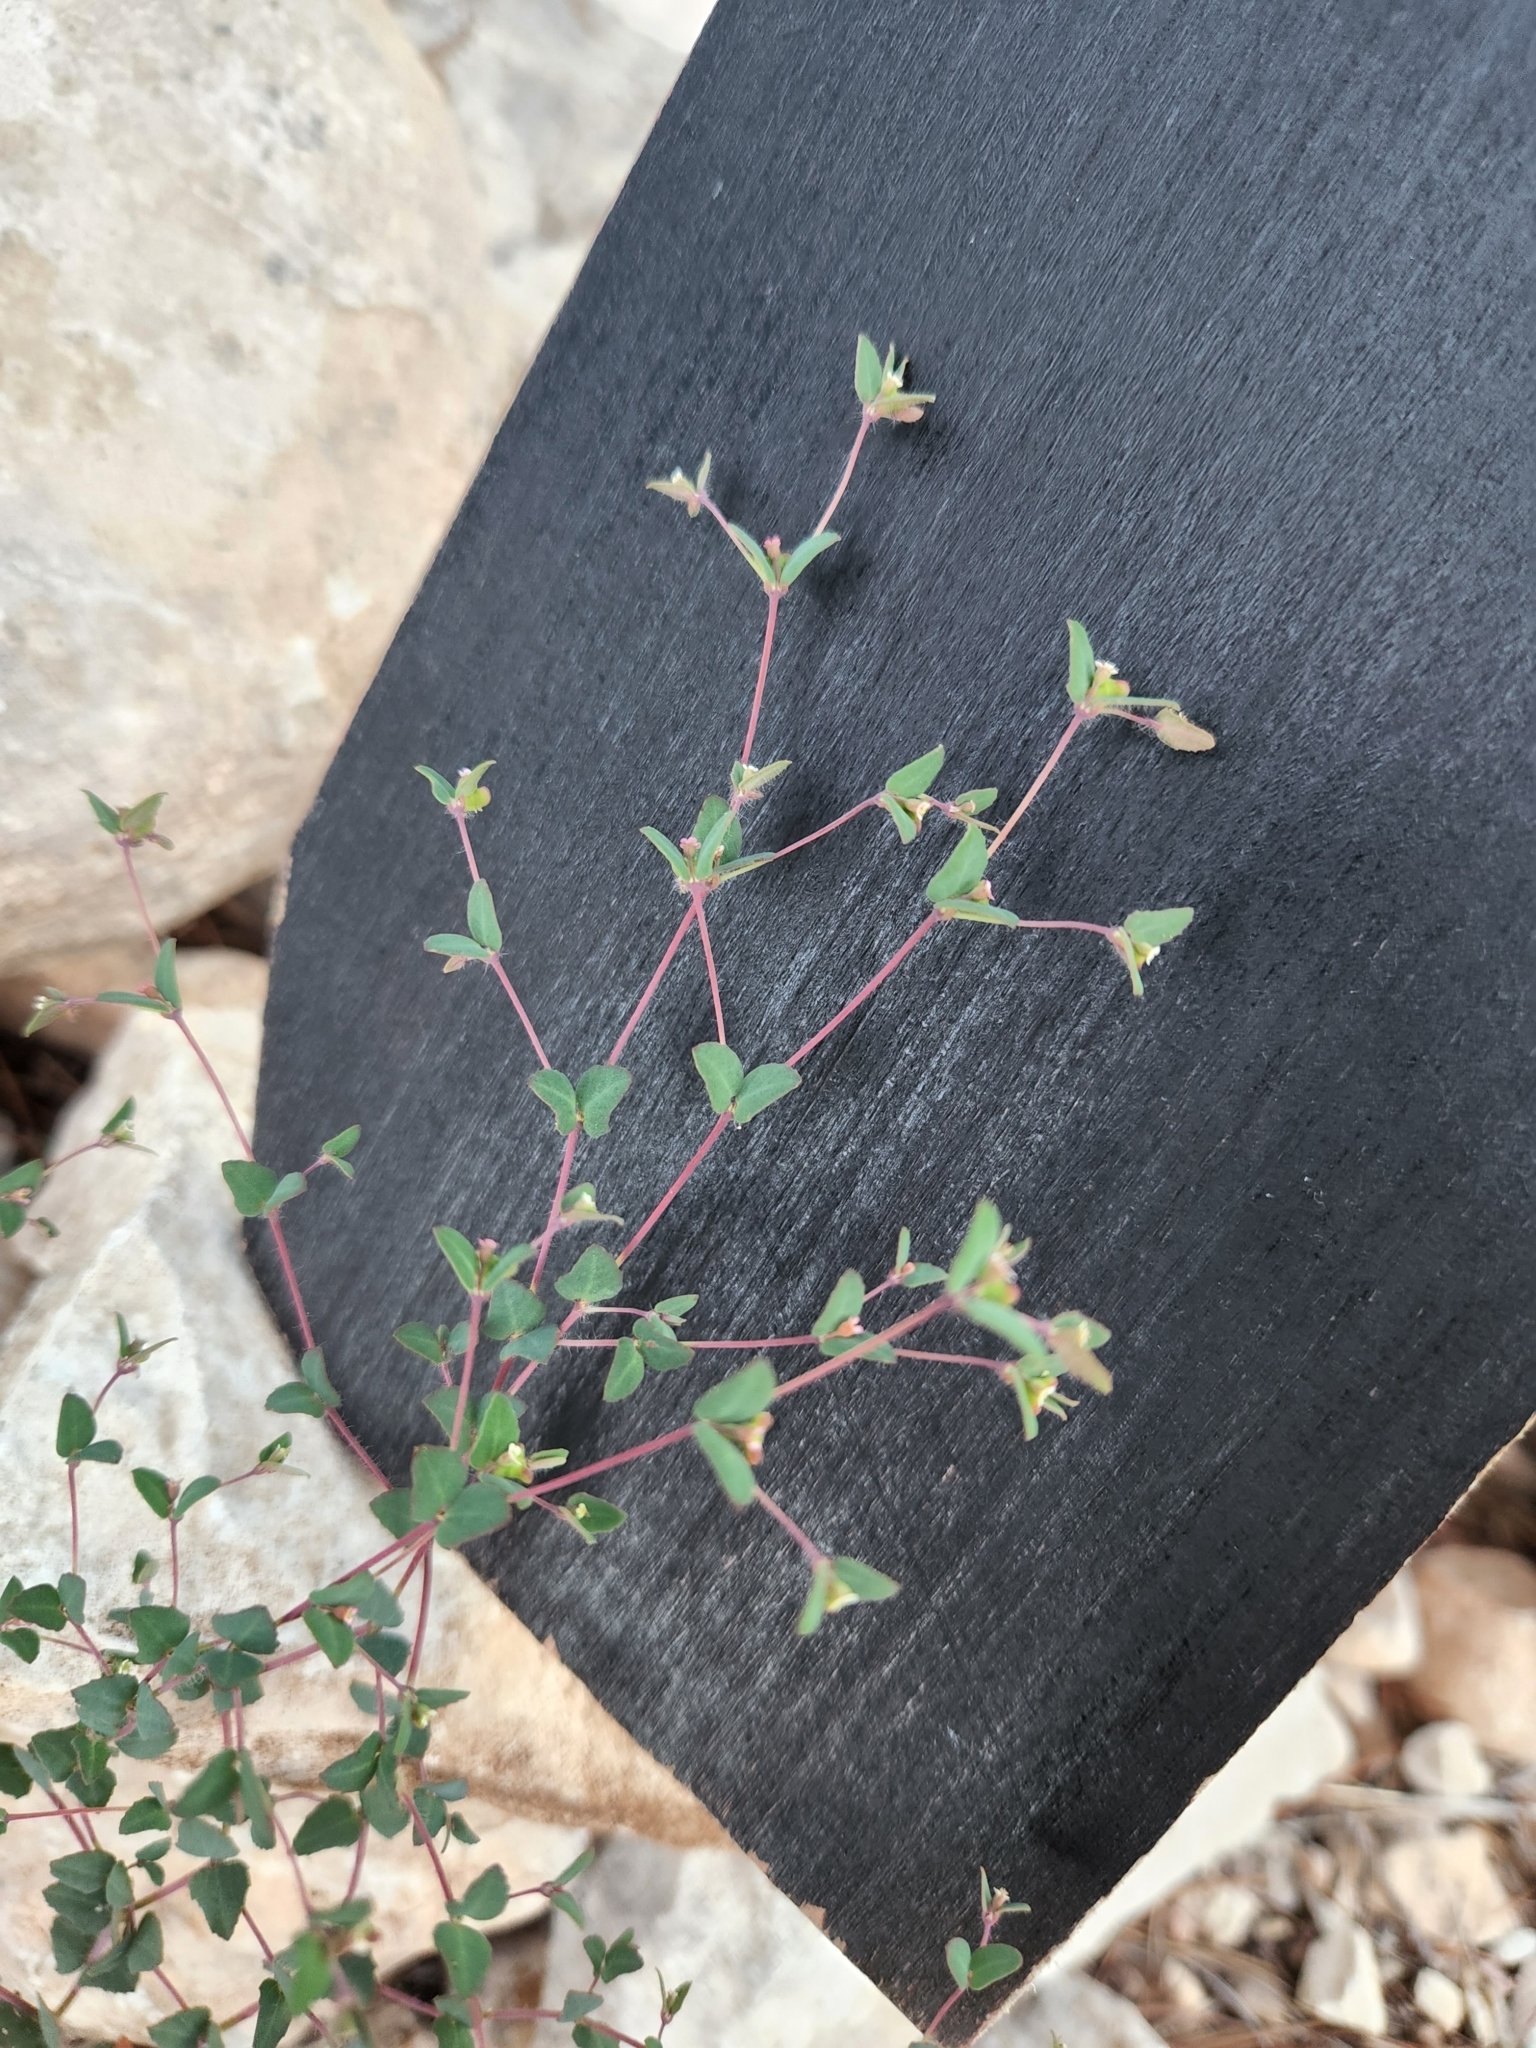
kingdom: Plantae
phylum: Tracheophyta
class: Magnoliopsida
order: Malpighiales
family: Euphorbiaceae
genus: Euphorbia
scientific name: Euphorbia villifera
